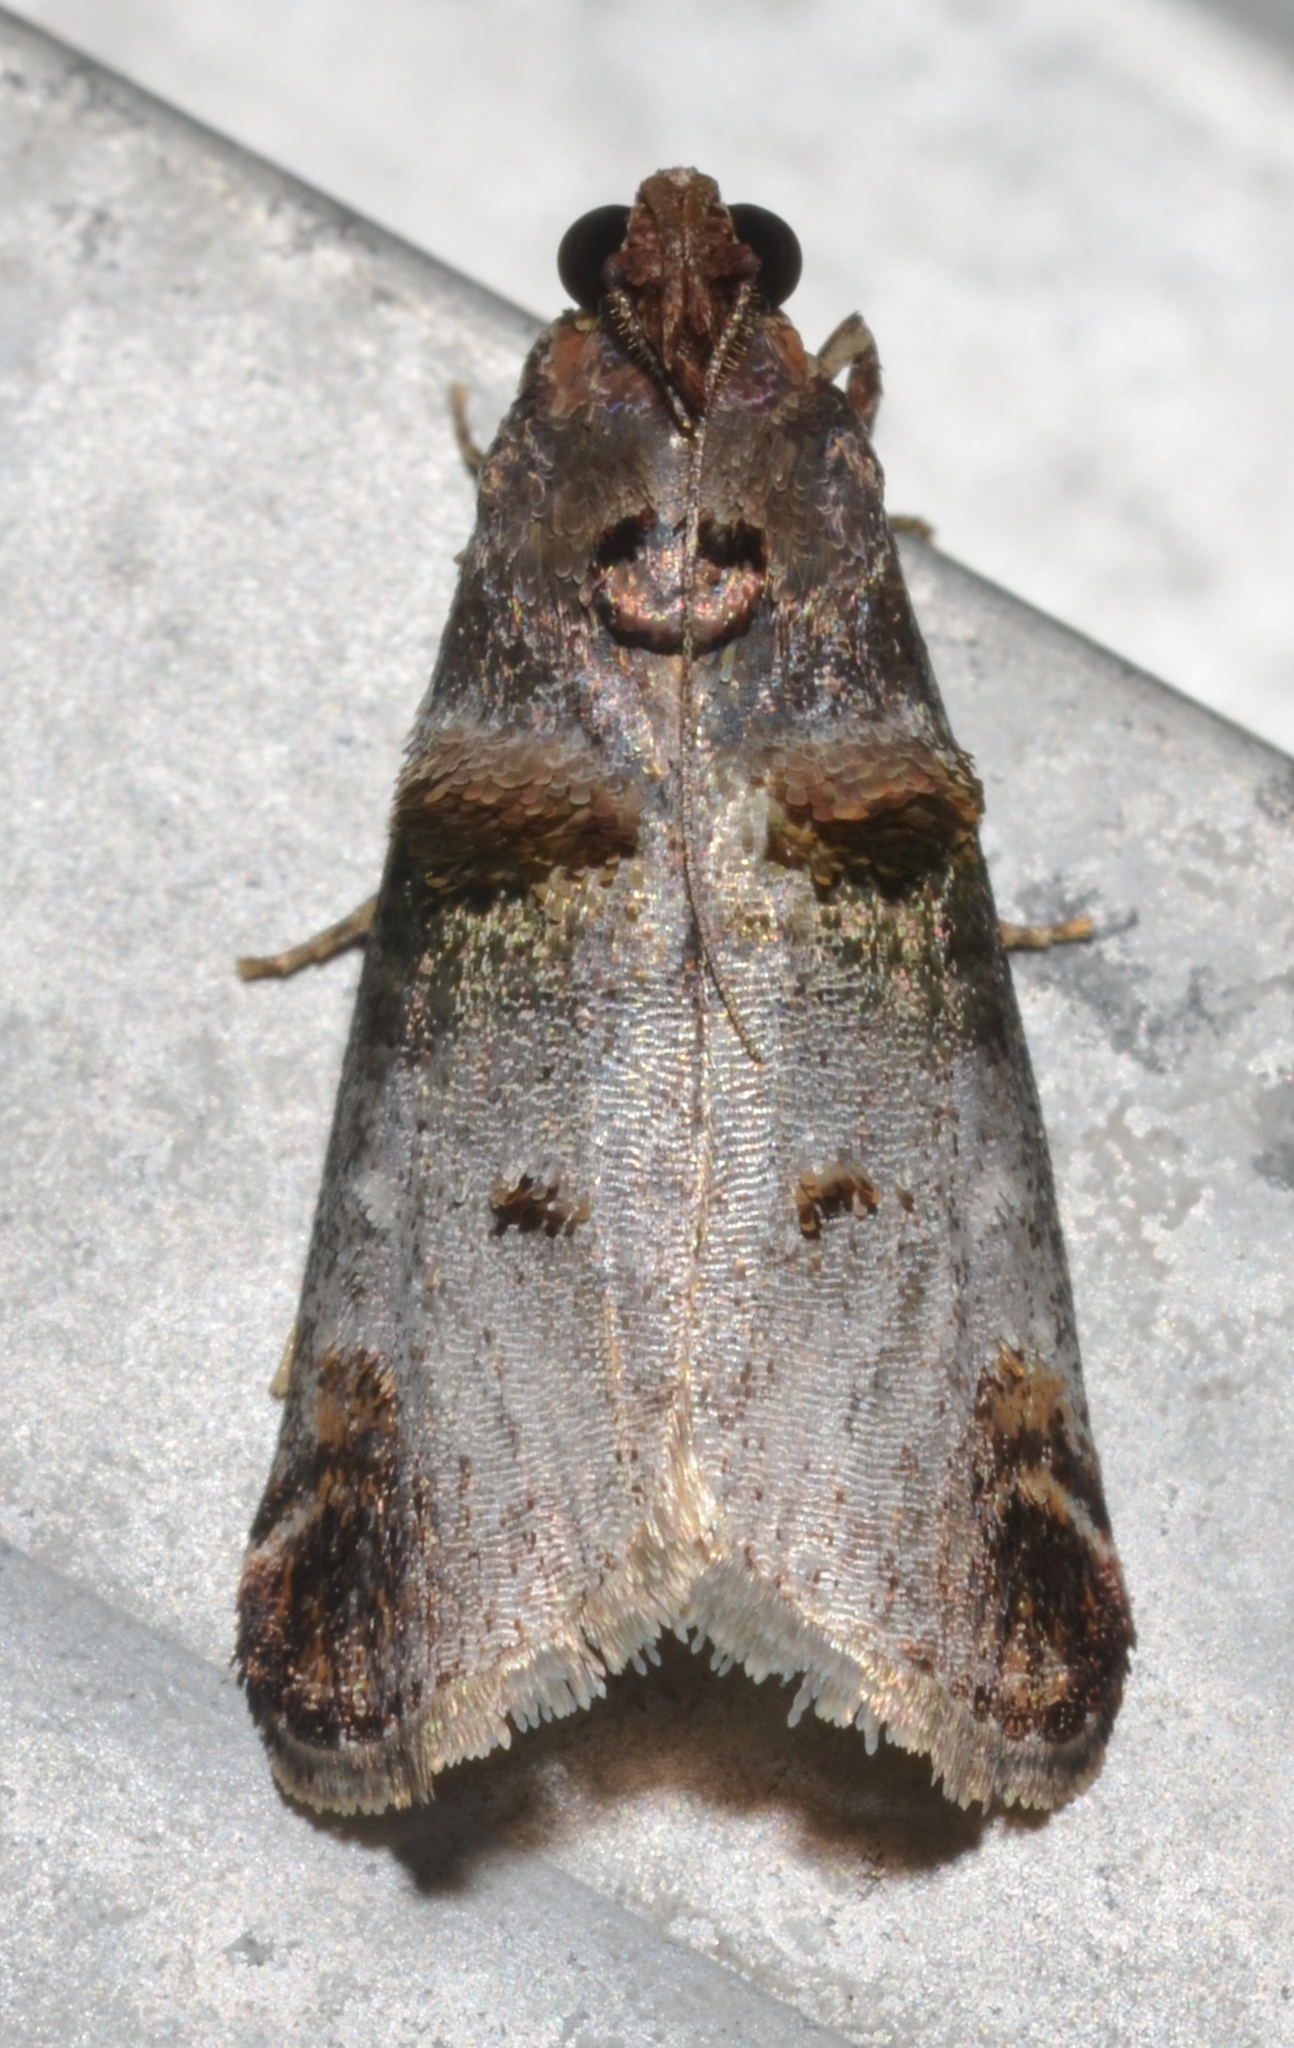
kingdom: Animalia
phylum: Arthropoda
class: Insecta
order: Lepidoptera
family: Pyralidae
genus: Oneida
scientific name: Oneida lunulalis
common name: Orange-tufted oneida moth
